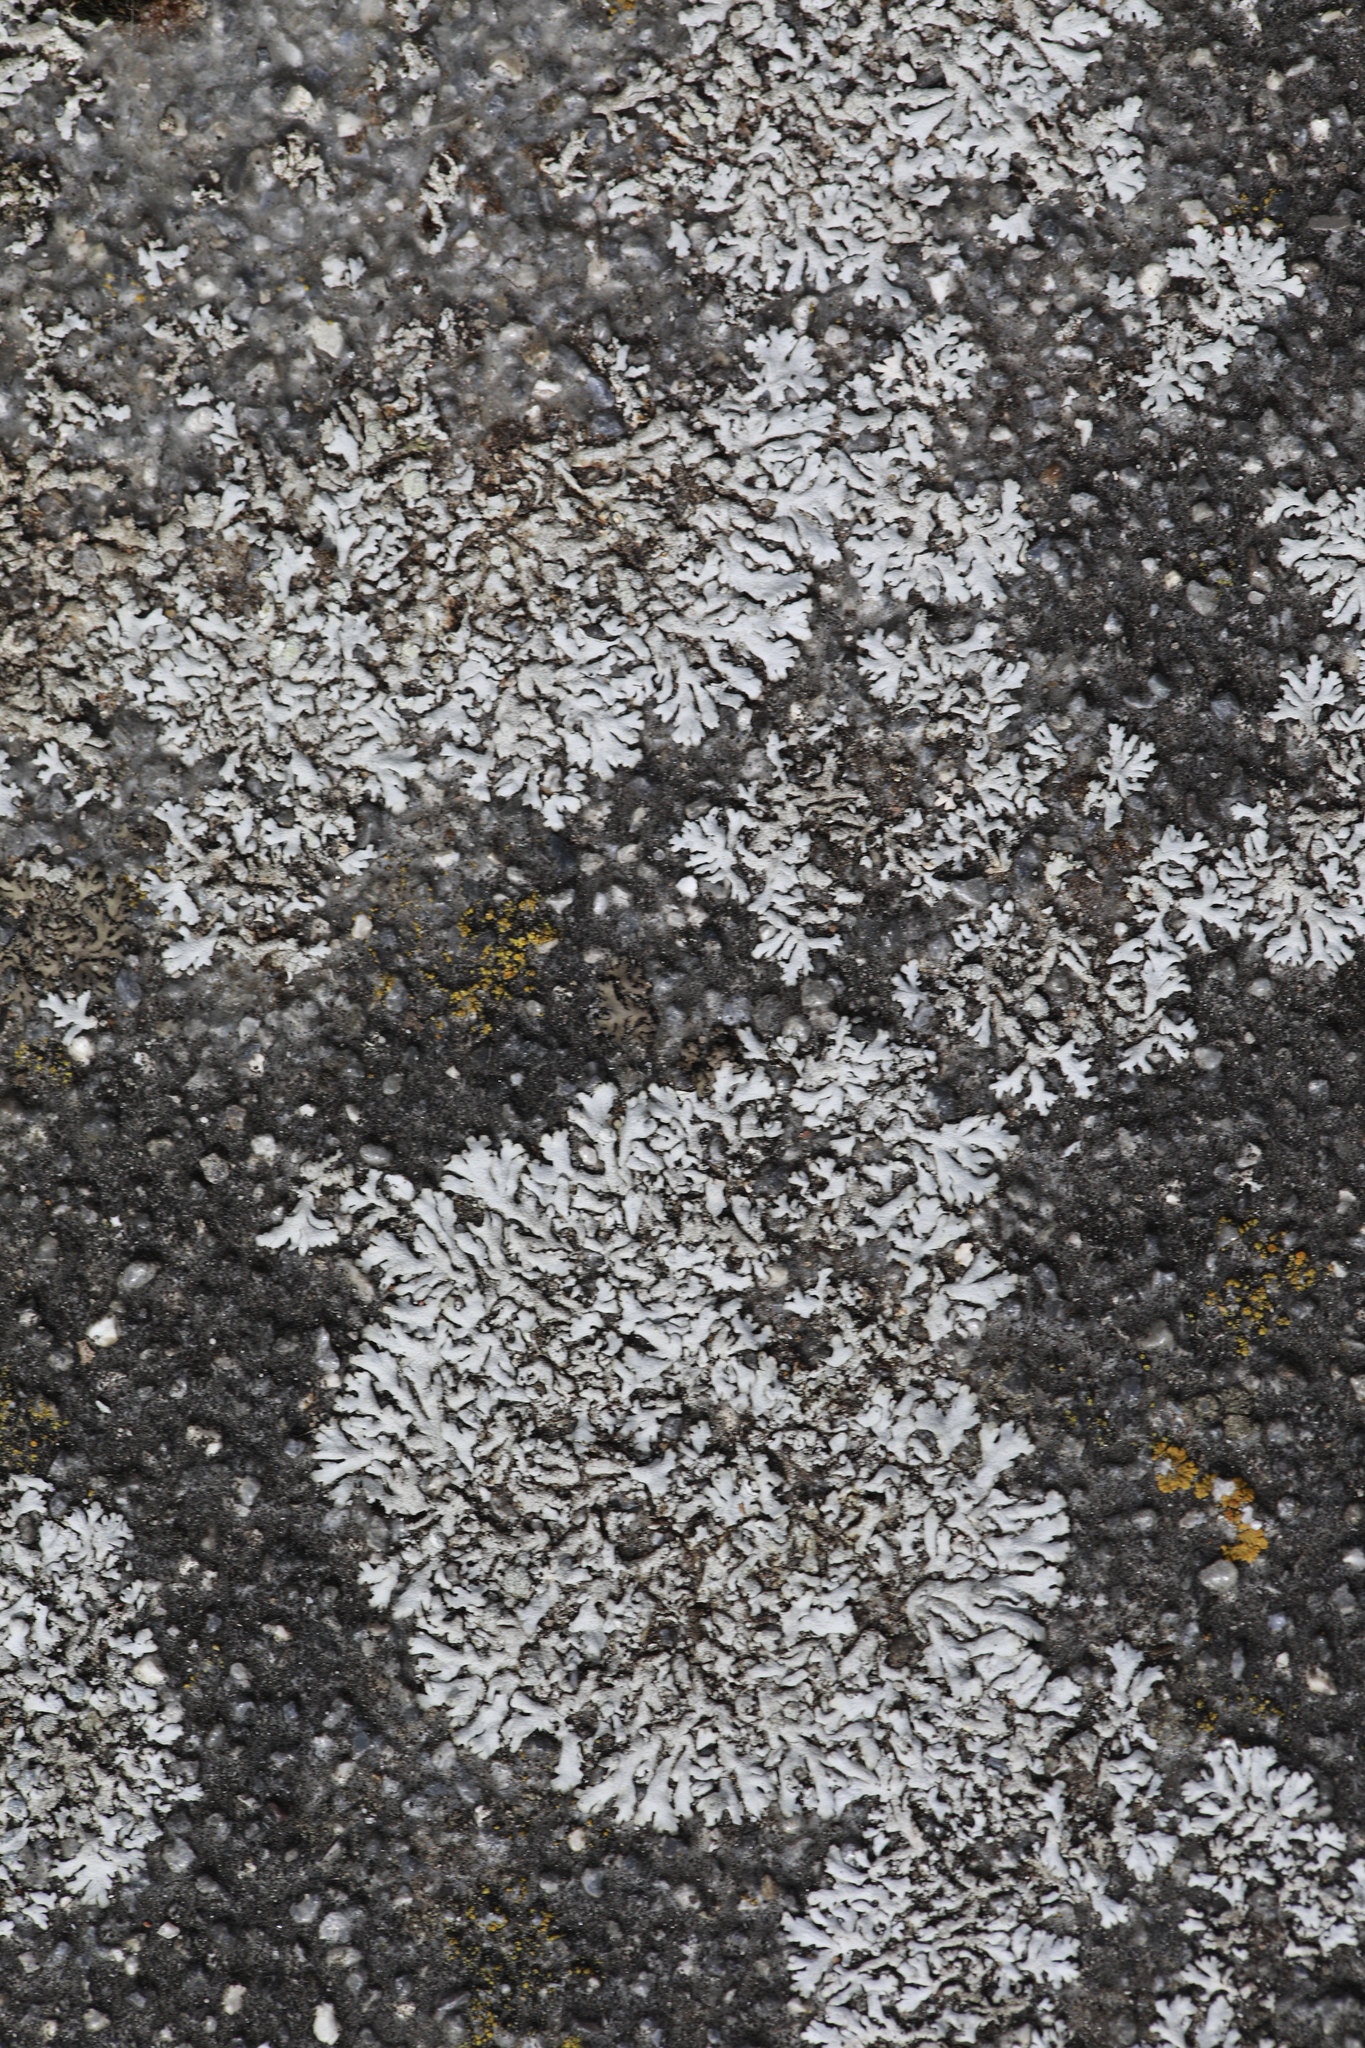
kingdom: Fungi
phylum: Ascomycota
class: Lecanoromycetes
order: Caliciales
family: Physciaceae
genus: Physcia
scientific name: Physcia caesia
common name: Blue-gray rosette lichen
